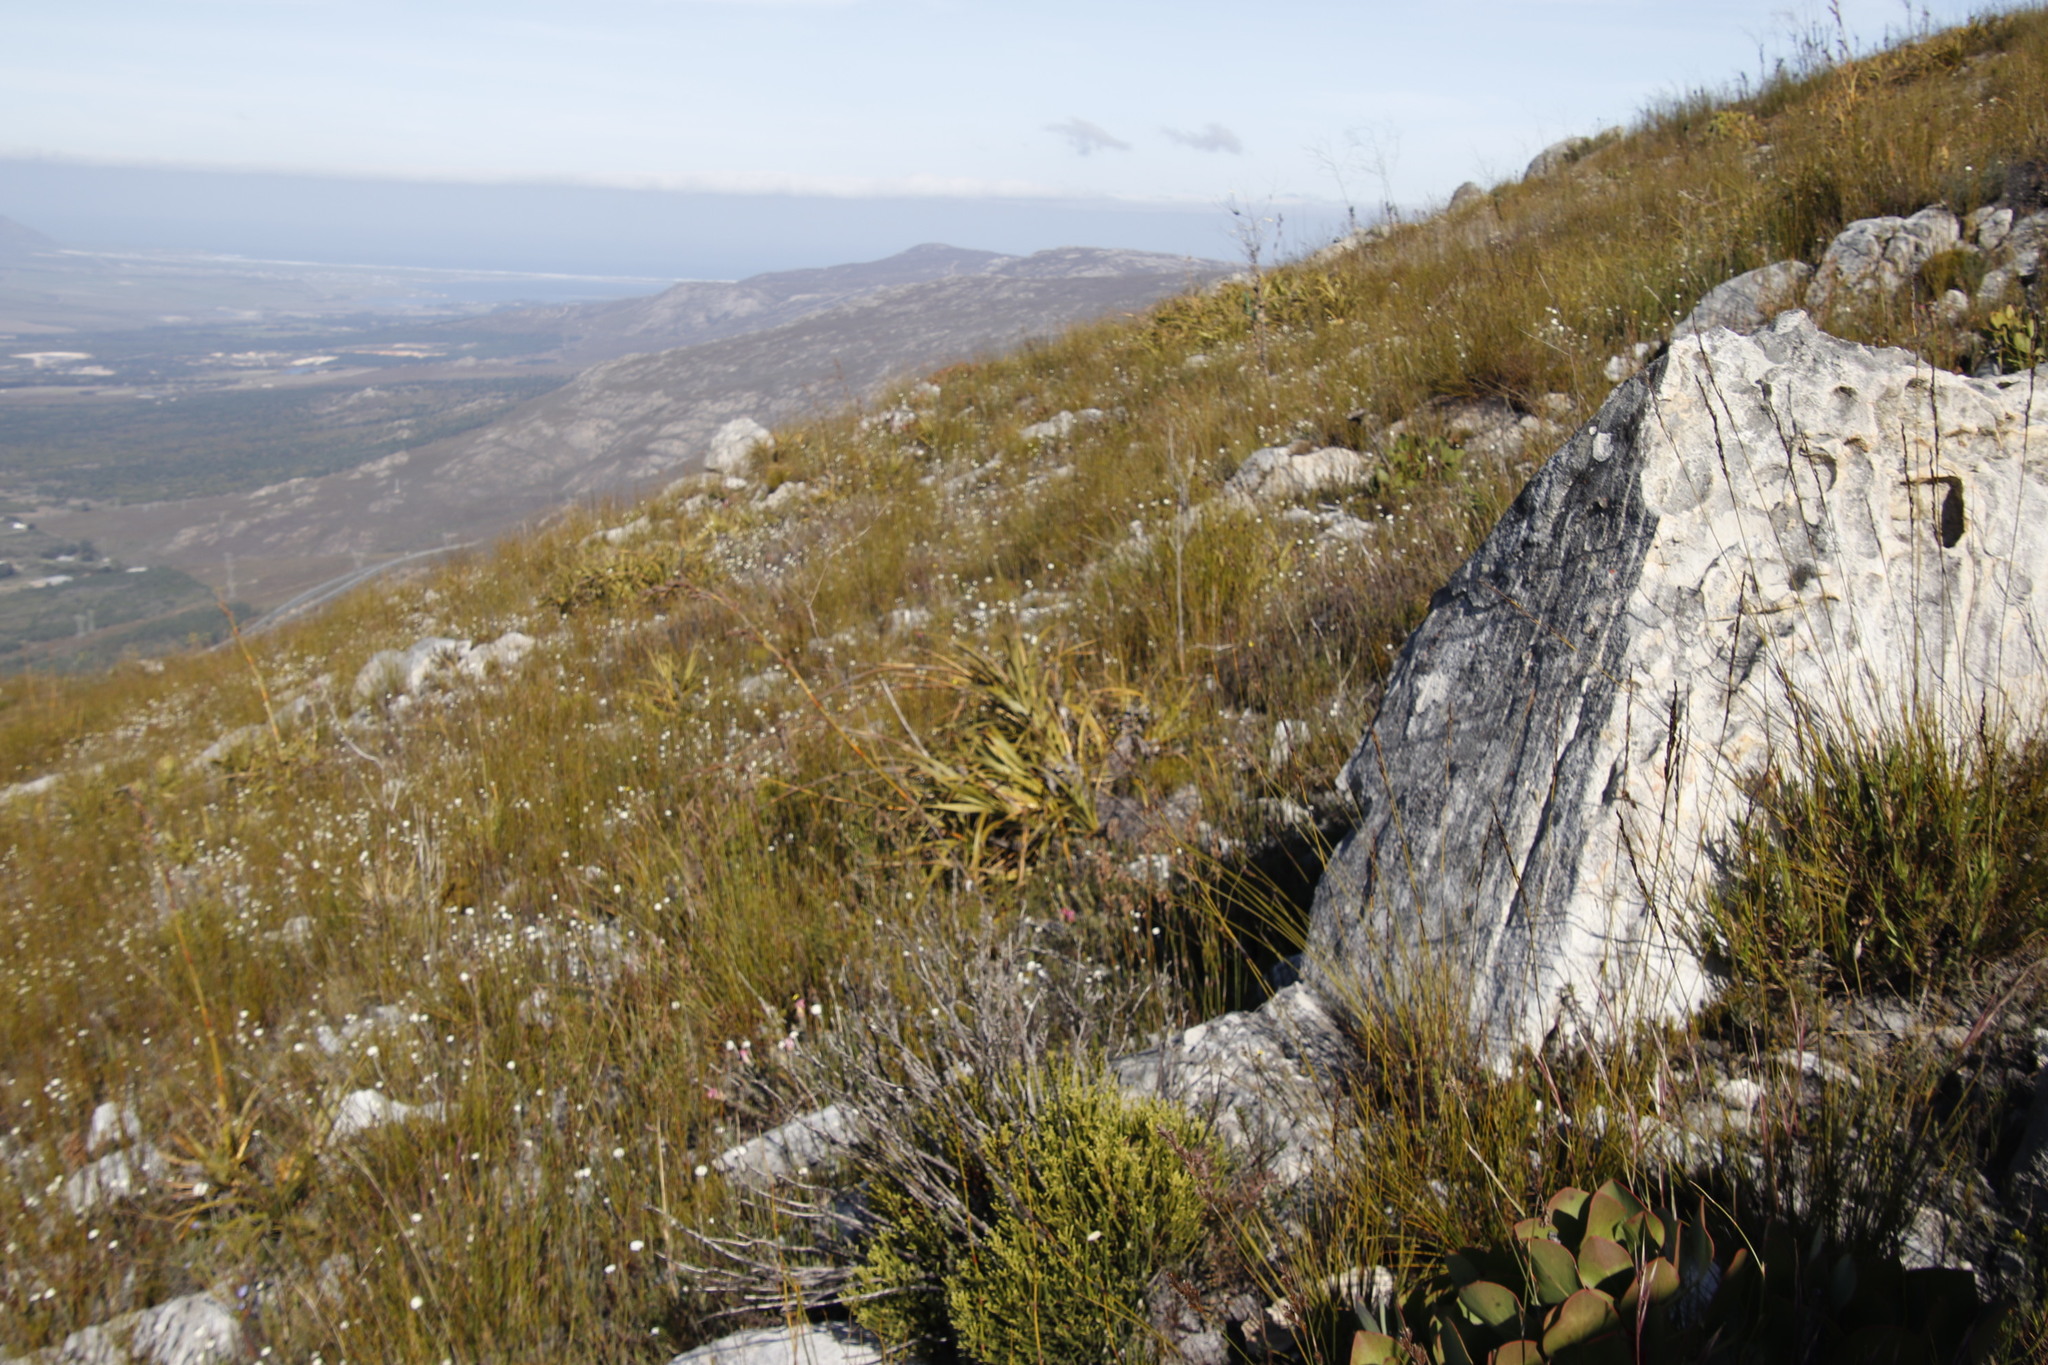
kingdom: Plantae
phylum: Tracheophyta
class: Liliopsida
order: Poales
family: Cyperaceae
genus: Tetraria
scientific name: Tetraria thermalis
